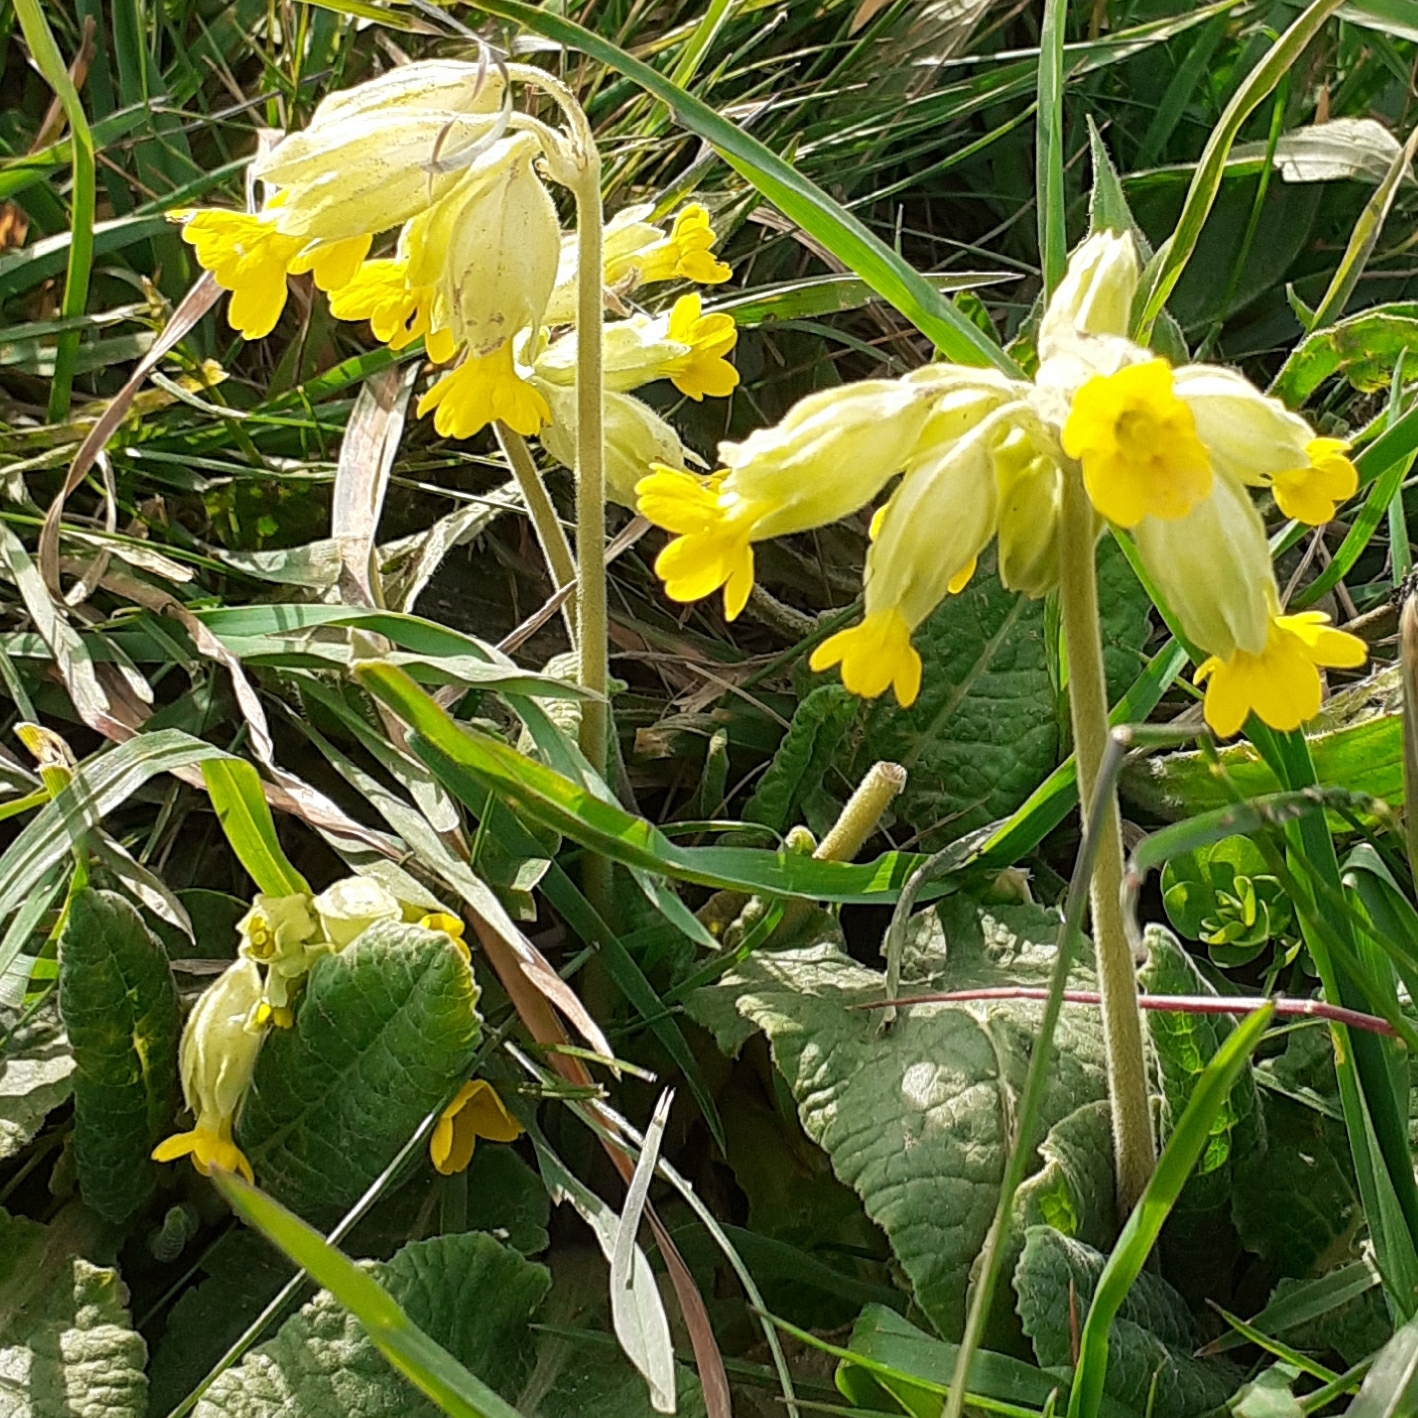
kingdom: Plantae
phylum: Tracheophyta
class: Magnoliopsida
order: Ericales
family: Primulaceae
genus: Primula
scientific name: Primula veris
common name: Cowslip
